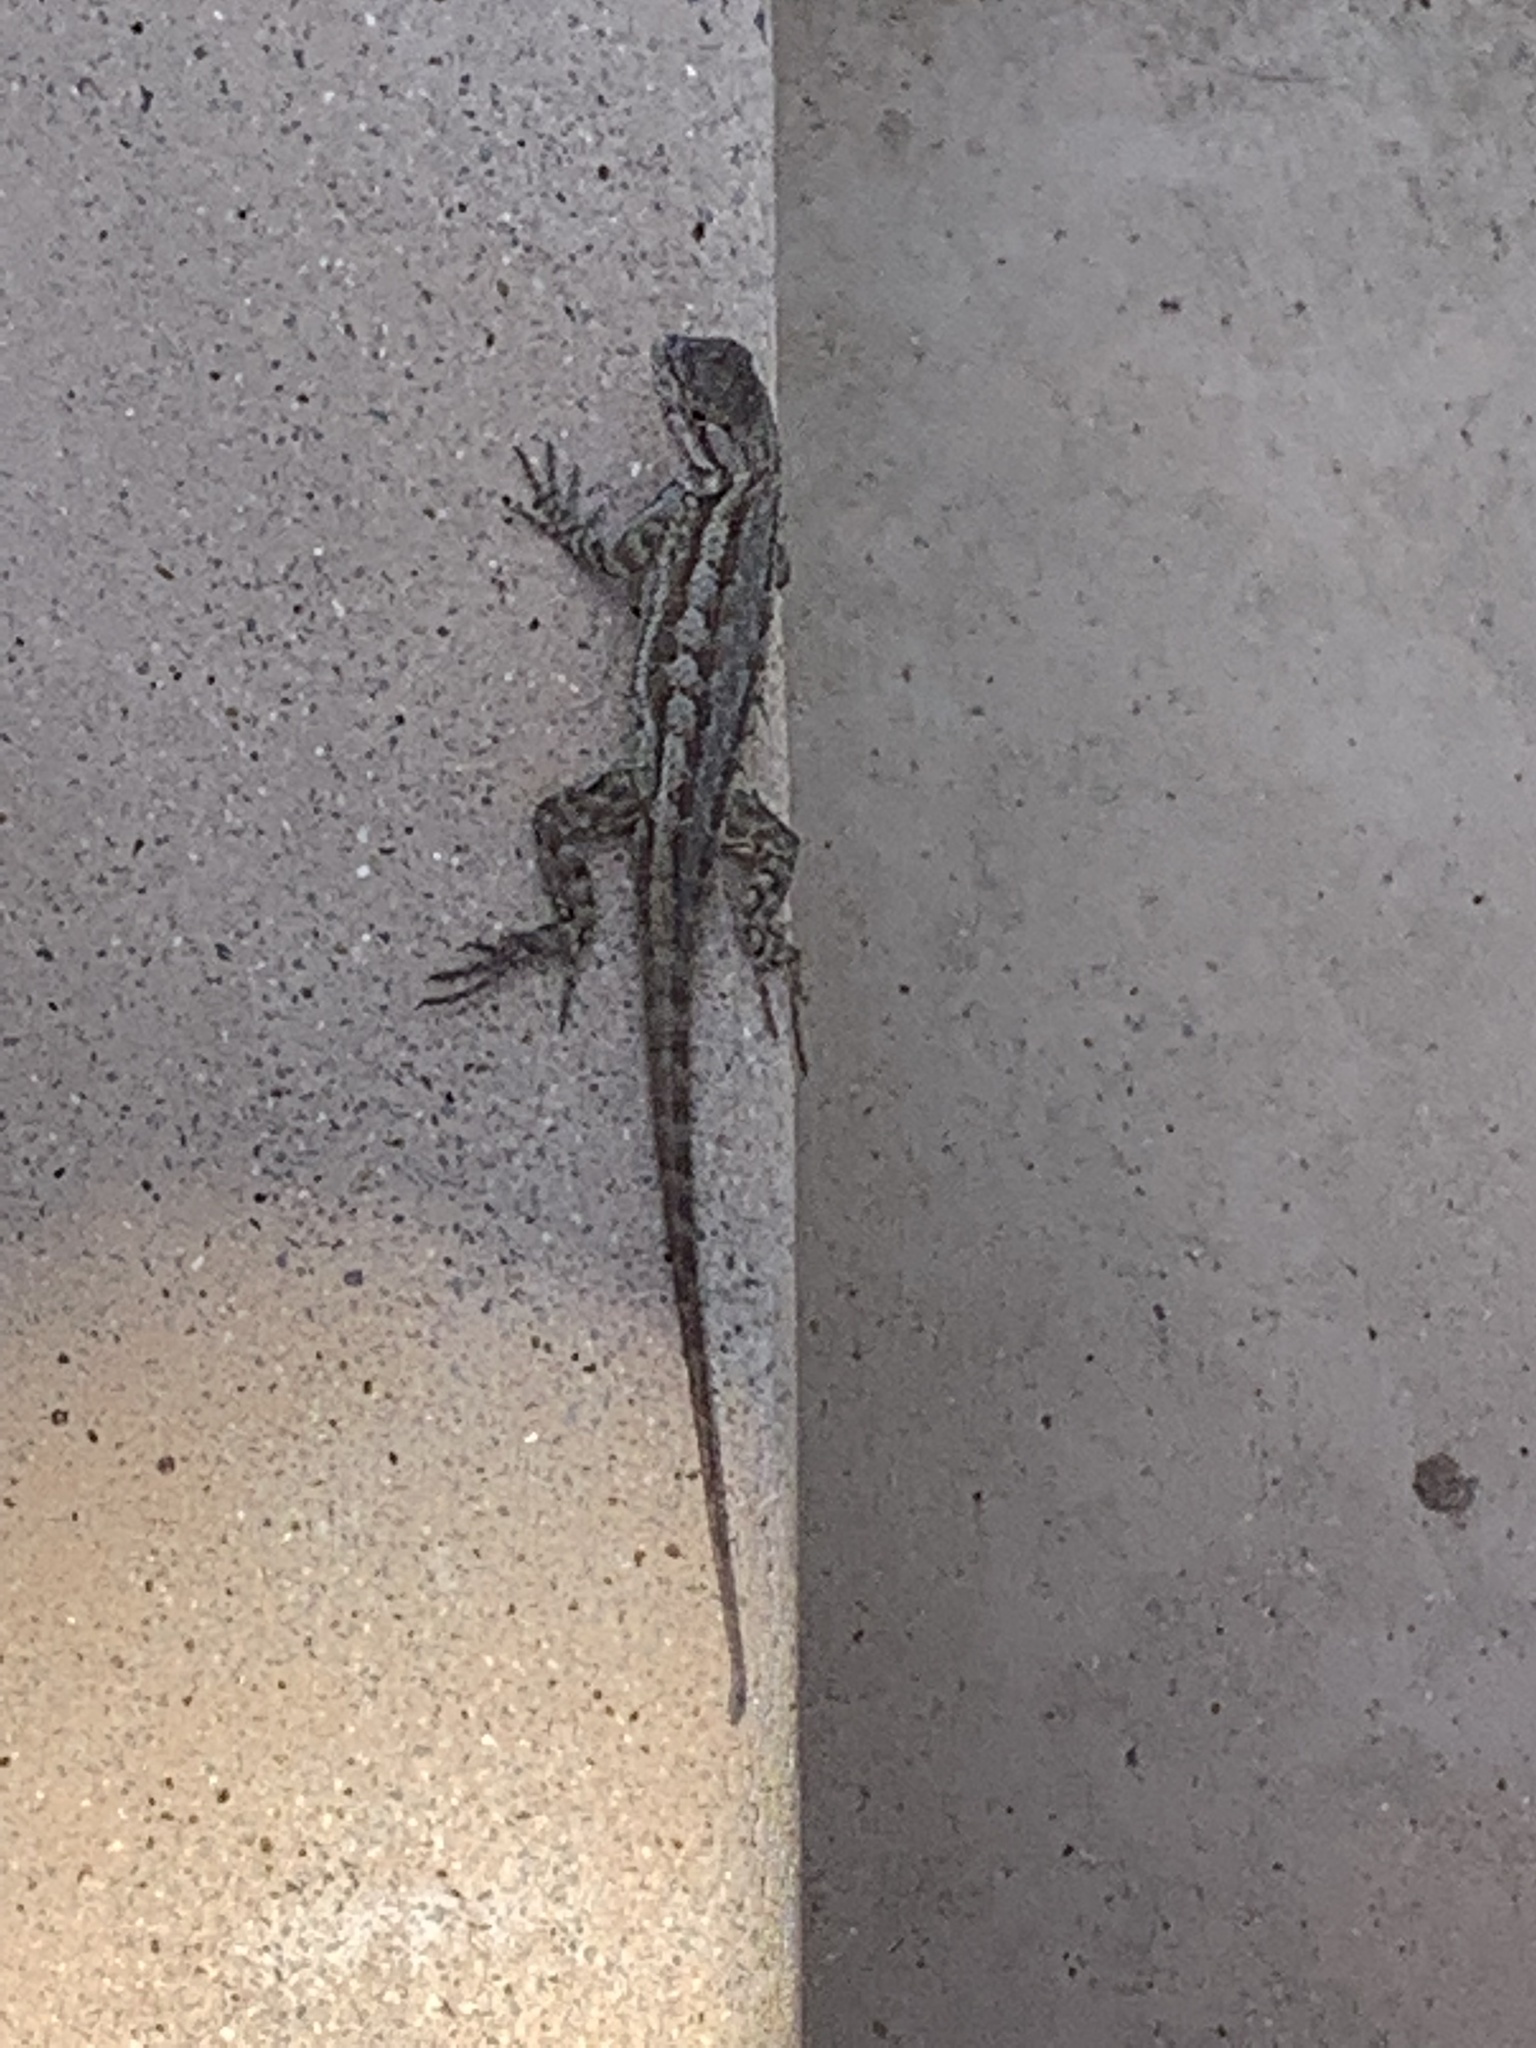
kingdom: Animalia
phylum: Chordata
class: Squamata
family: Phrynosomatidae
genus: Sceloporus
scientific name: Sceloporus occidentalis
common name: Western fence lizard
